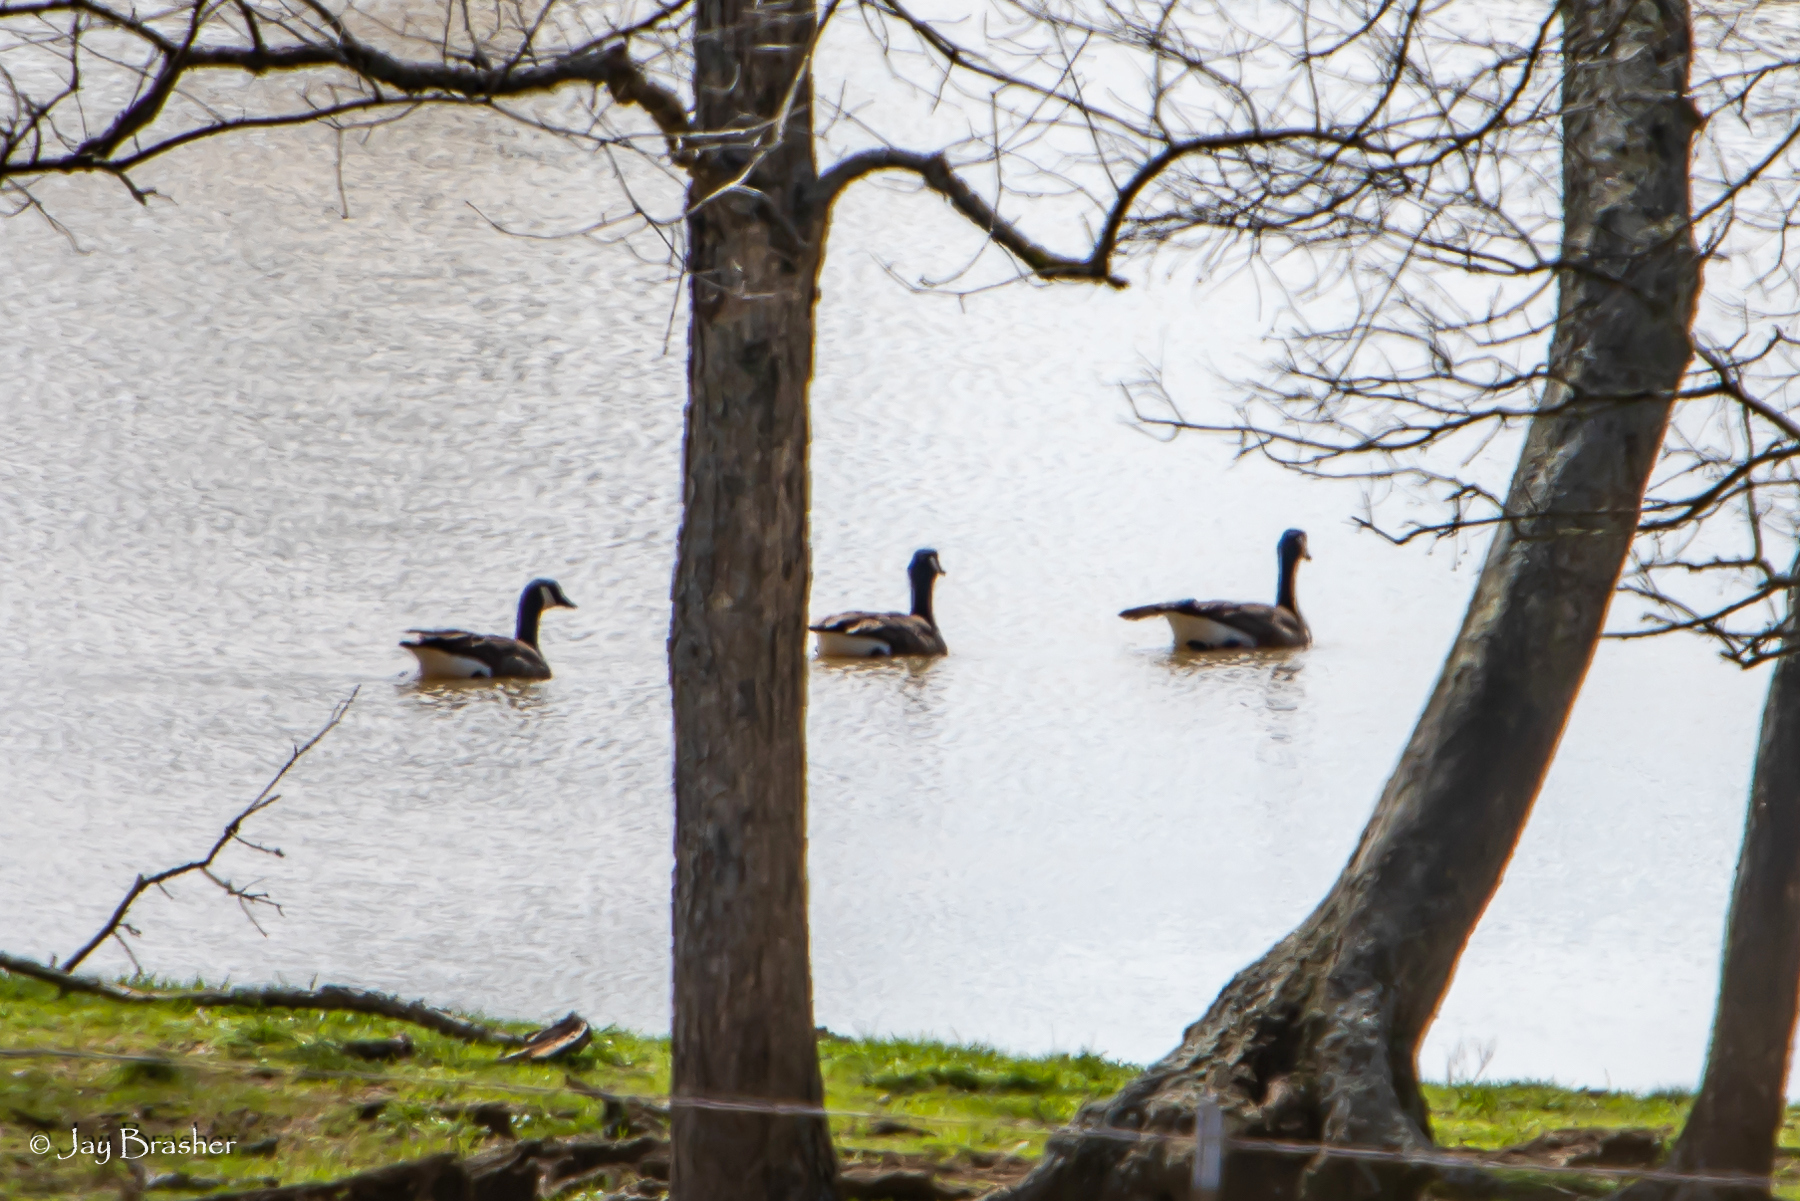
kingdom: Animalia
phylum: Chordata
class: Aves
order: Anseriformes
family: Anatidae
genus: Branta
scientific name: Branta canadensis
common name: Canada goose
